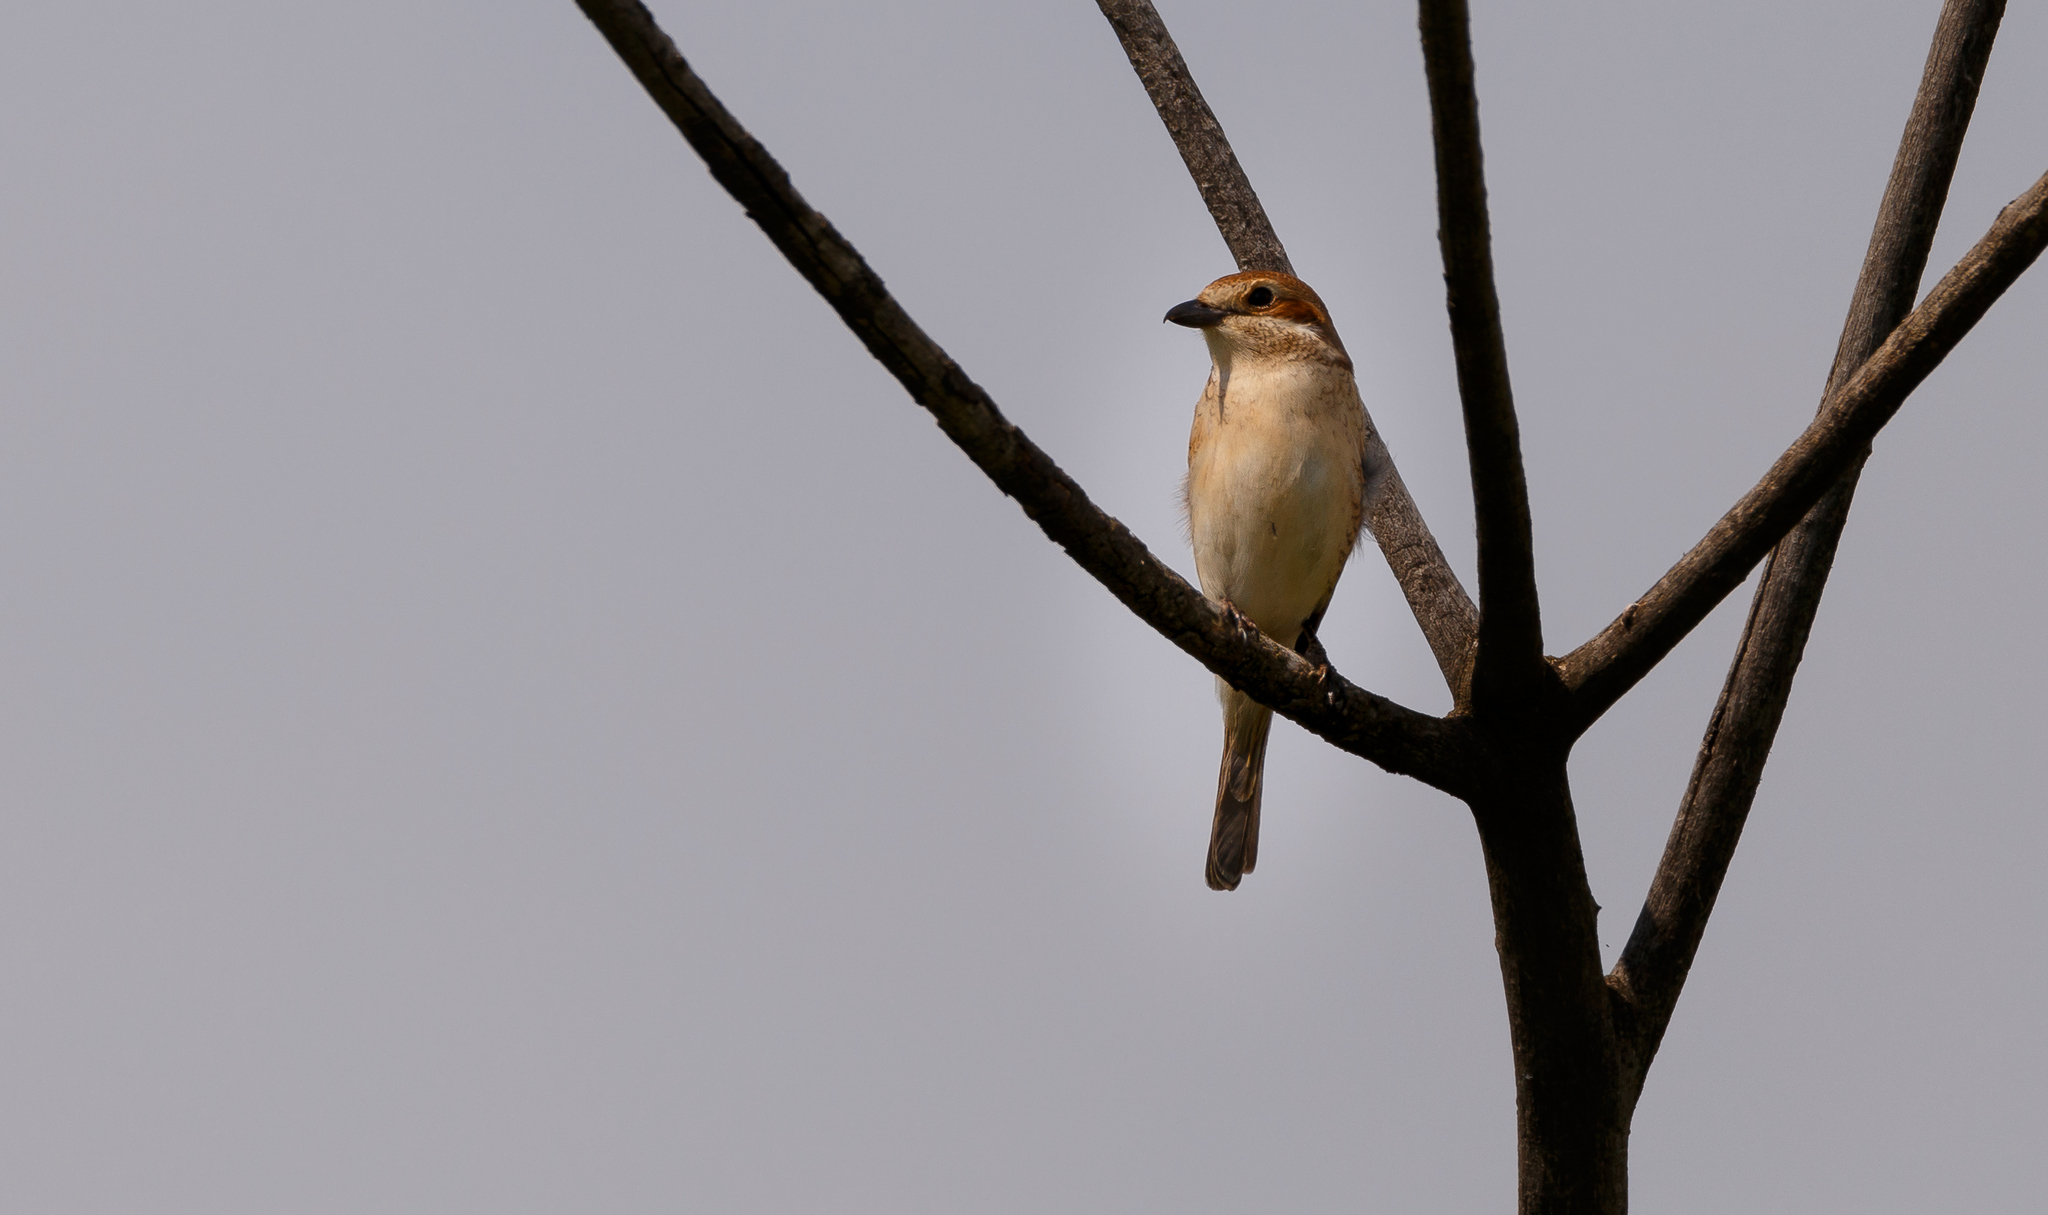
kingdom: Animalia
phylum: Chordata
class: Aves
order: Passeriformes
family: Laniidae
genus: Lanius
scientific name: Lanius collurio
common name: Red-backed shrike
